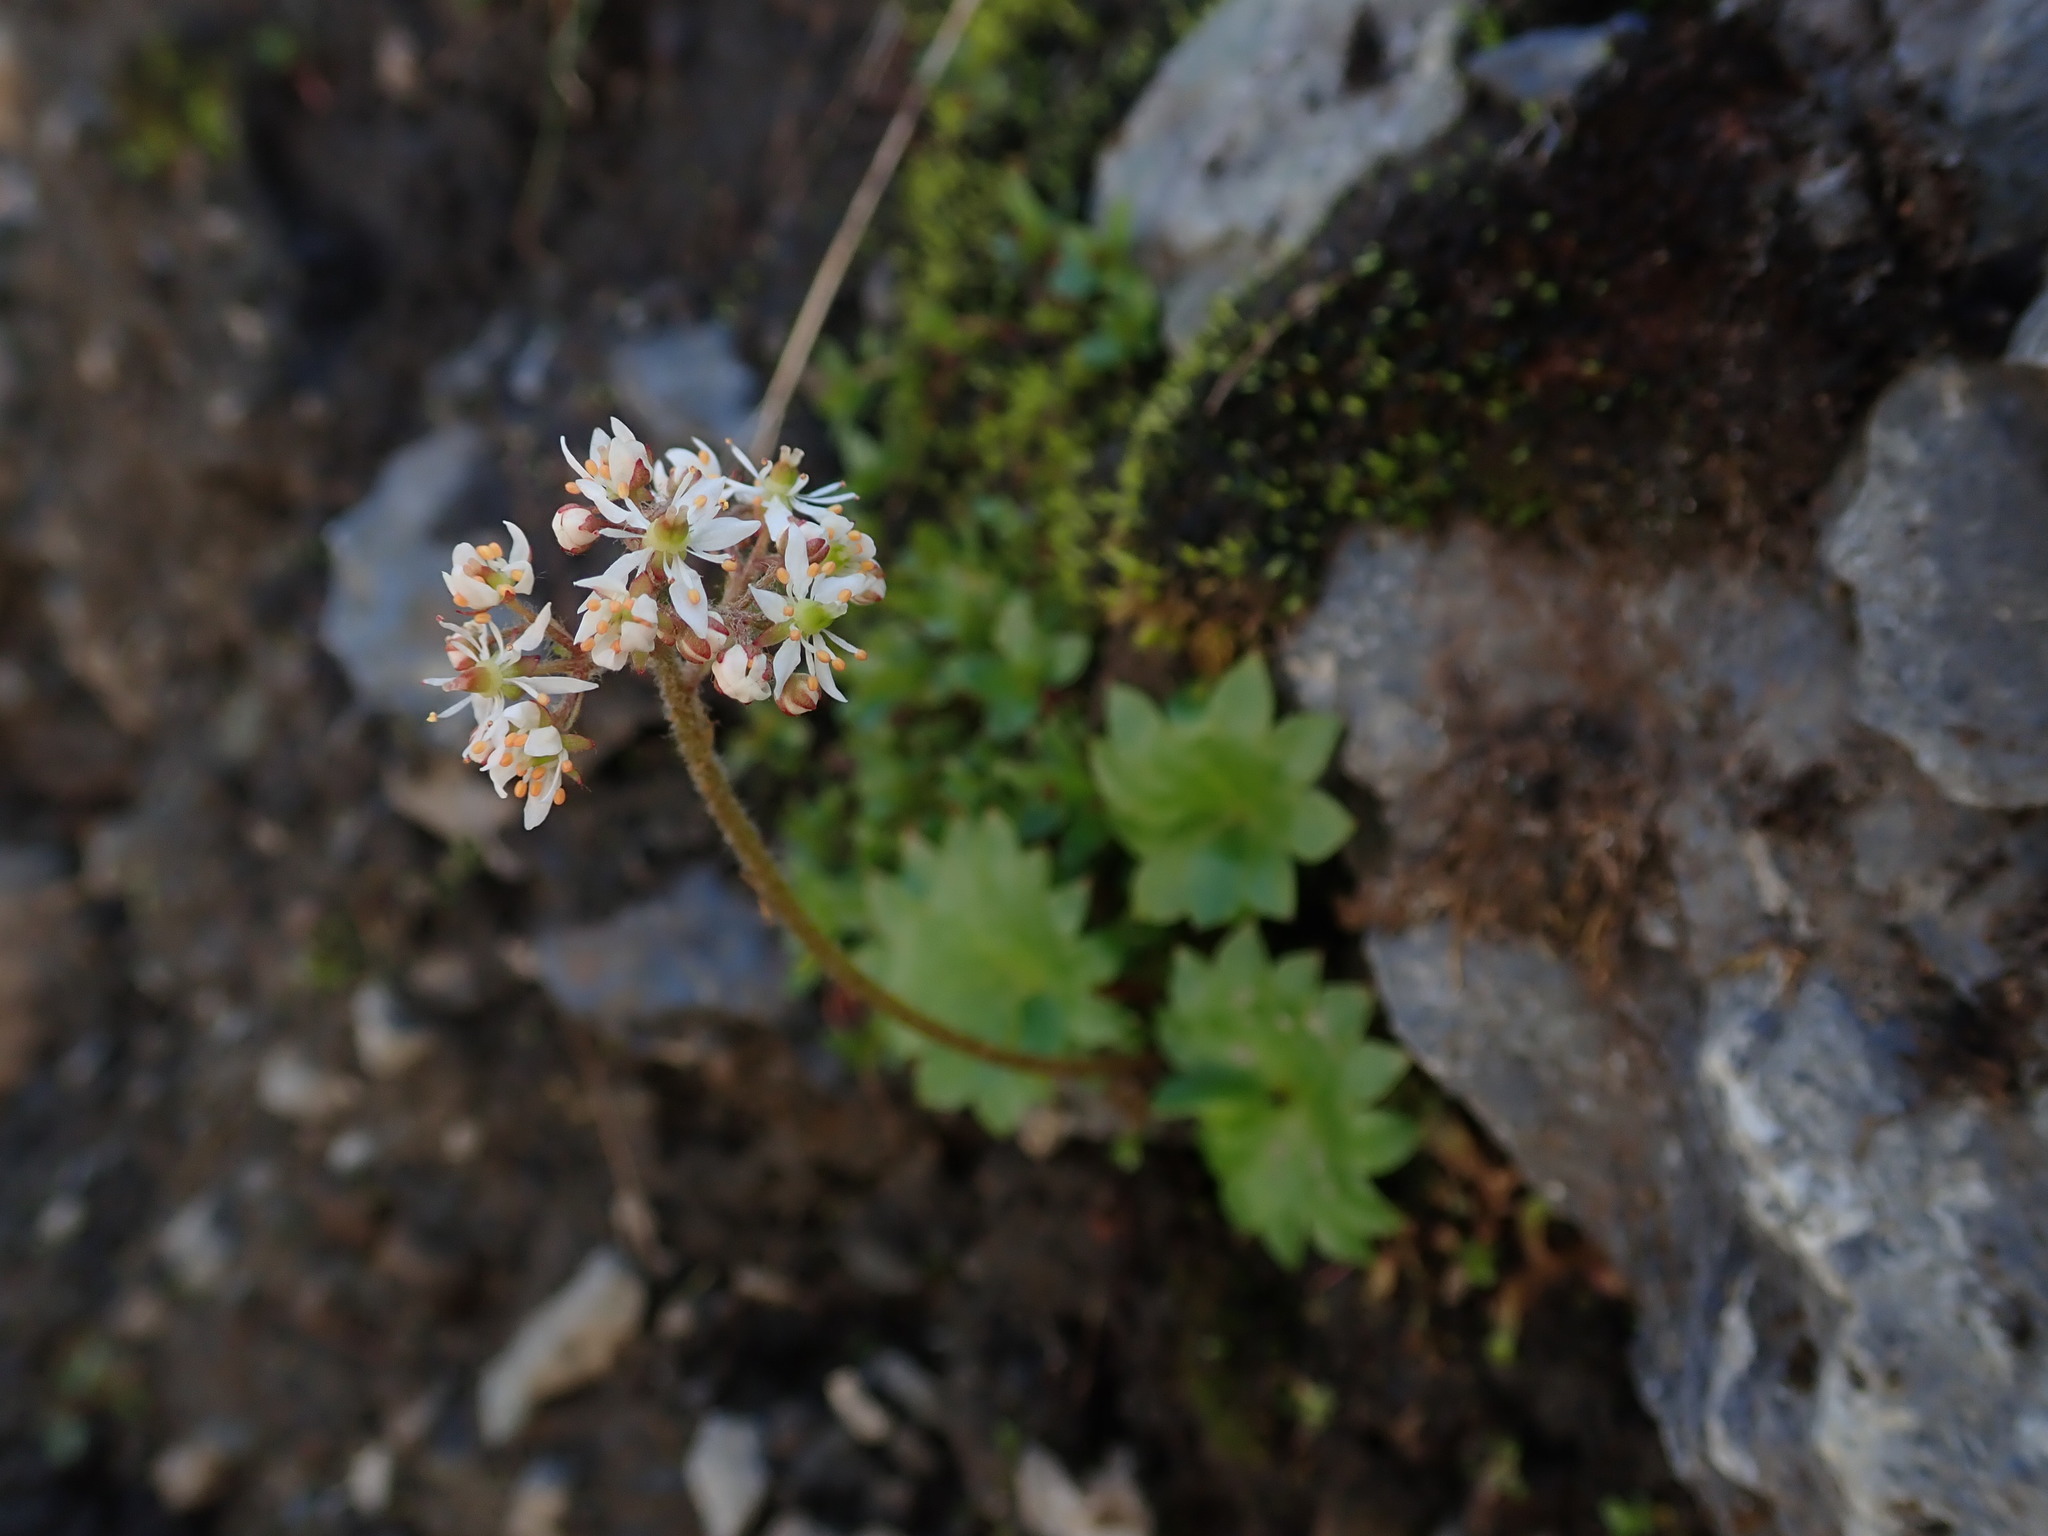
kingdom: Plantae
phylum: Tracheophyta
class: Magnoliopsida
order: Saxifragales
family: Saxifragaceae
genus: Micranthes
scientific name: Micranthes nelsoniana
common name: Nelson's saxifrage
